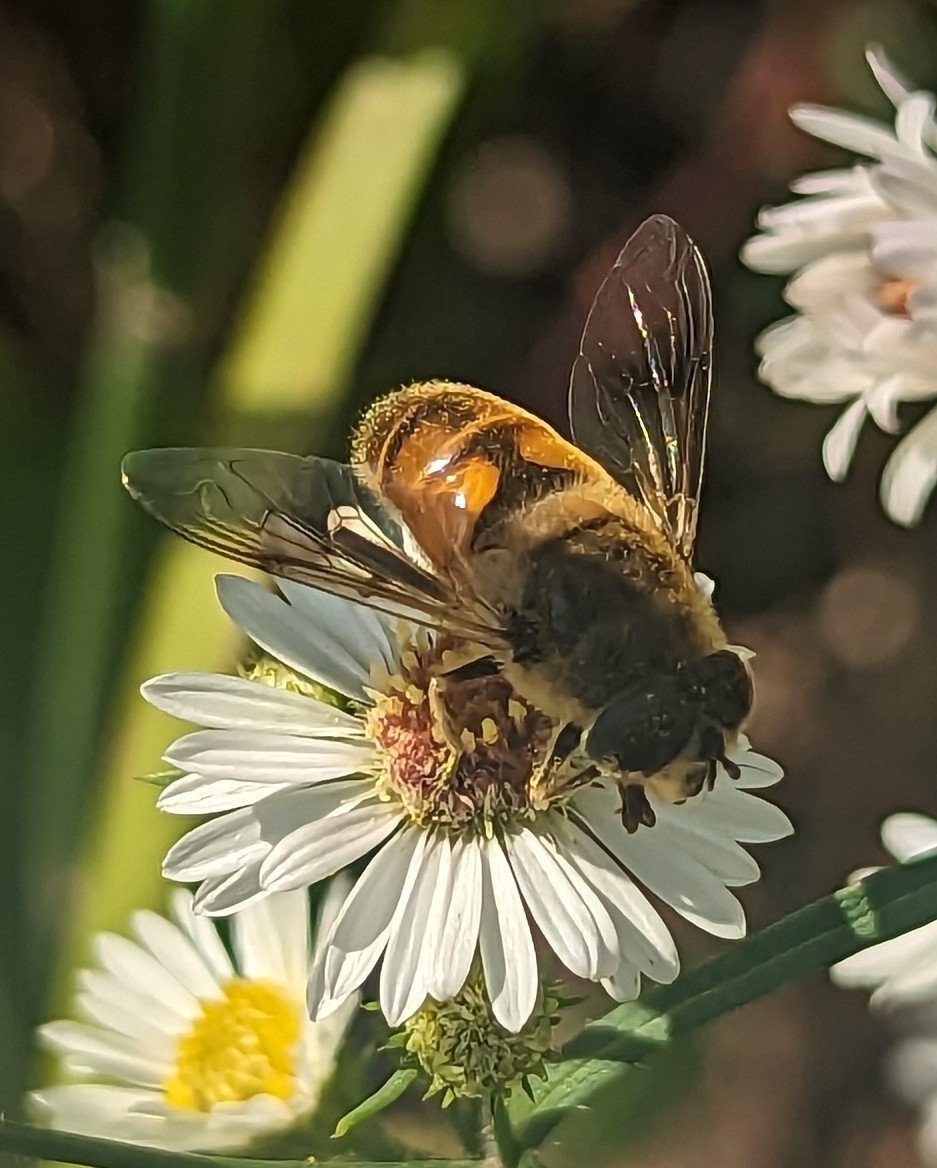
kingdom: Animalia
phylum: Arthropoda
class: Insecta
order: Diptera
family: Syrphidae
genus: Eristalis
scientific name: Eristalis tenax
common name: Drone fly
